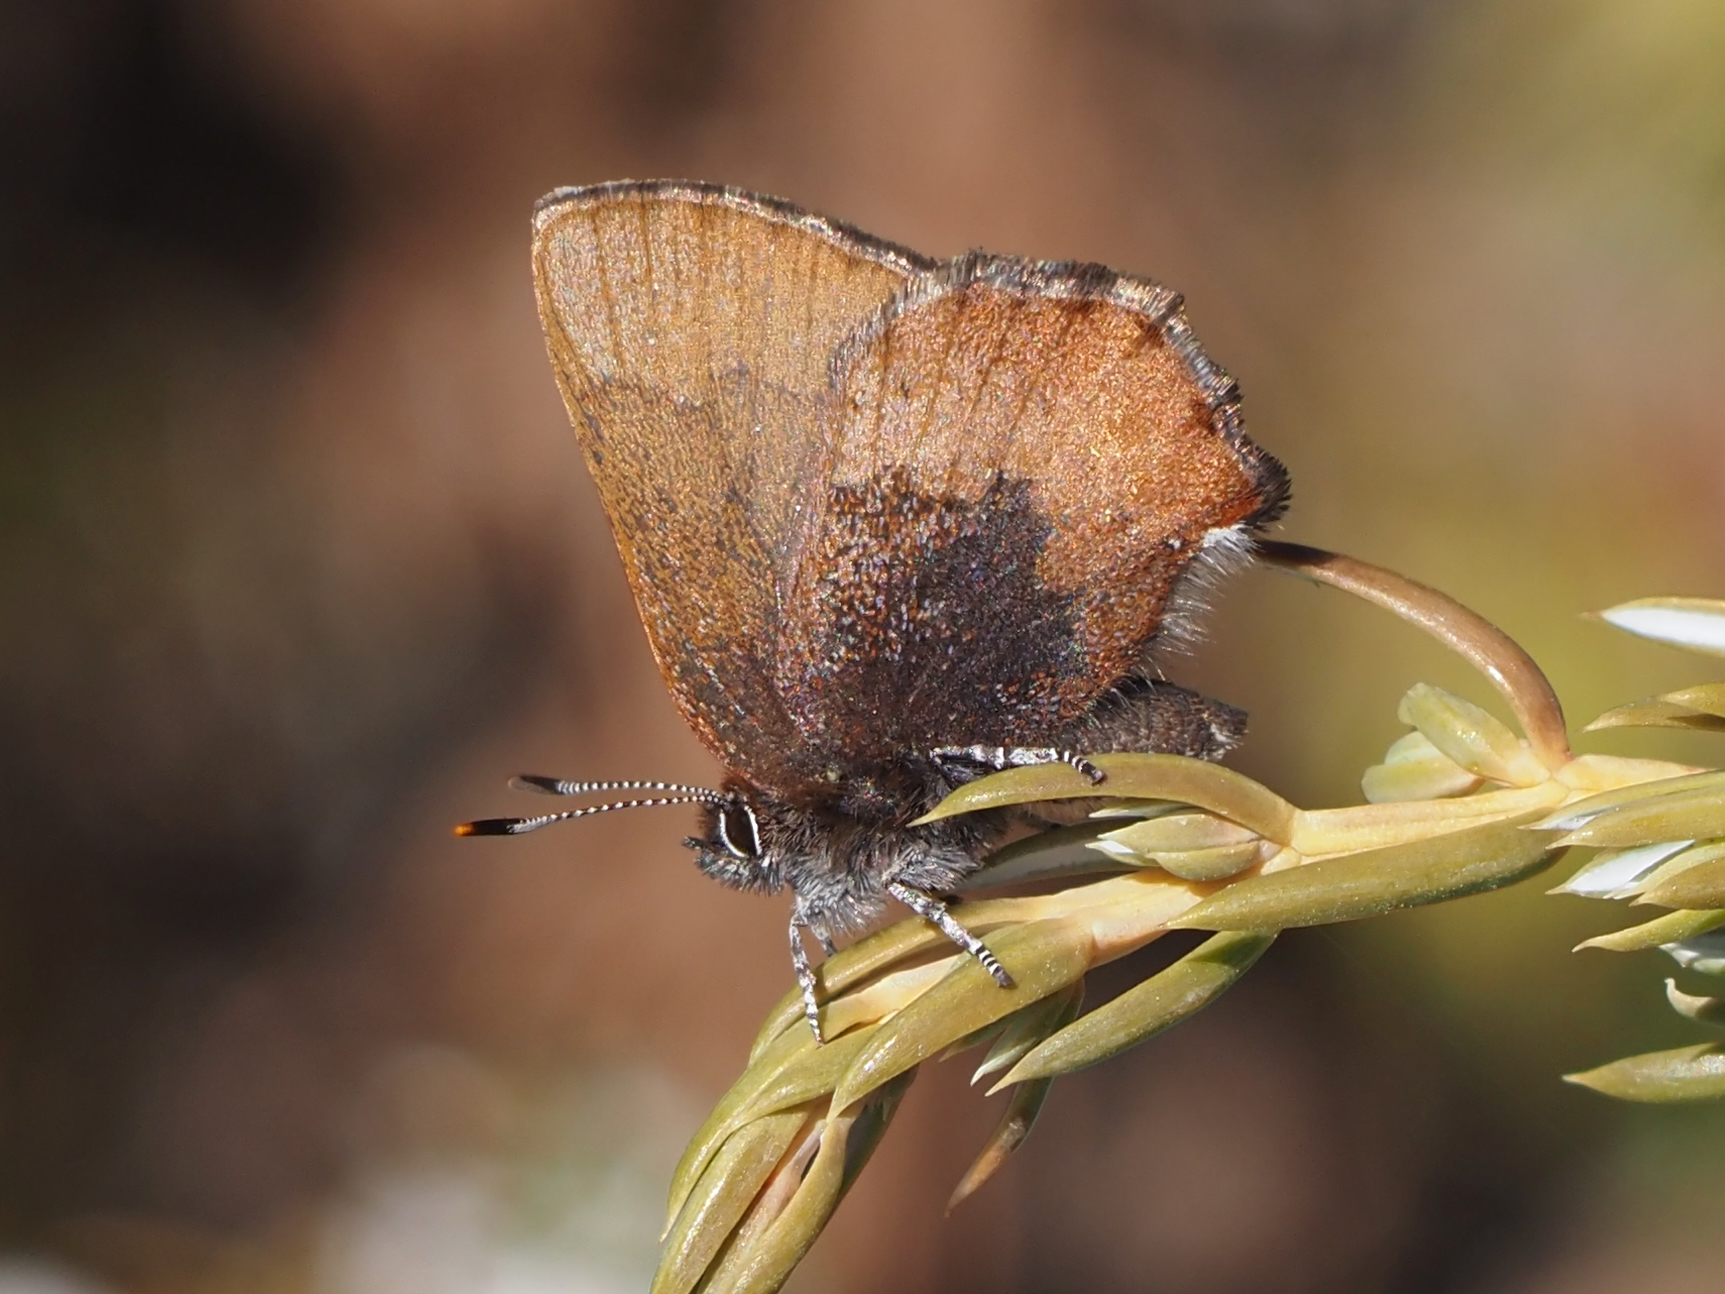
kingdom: Animalia
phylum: Arthropoda
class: Insecta
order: Lepidoptera
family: Lycaenidae
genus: Incisalia
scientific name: Incisalia irioides
